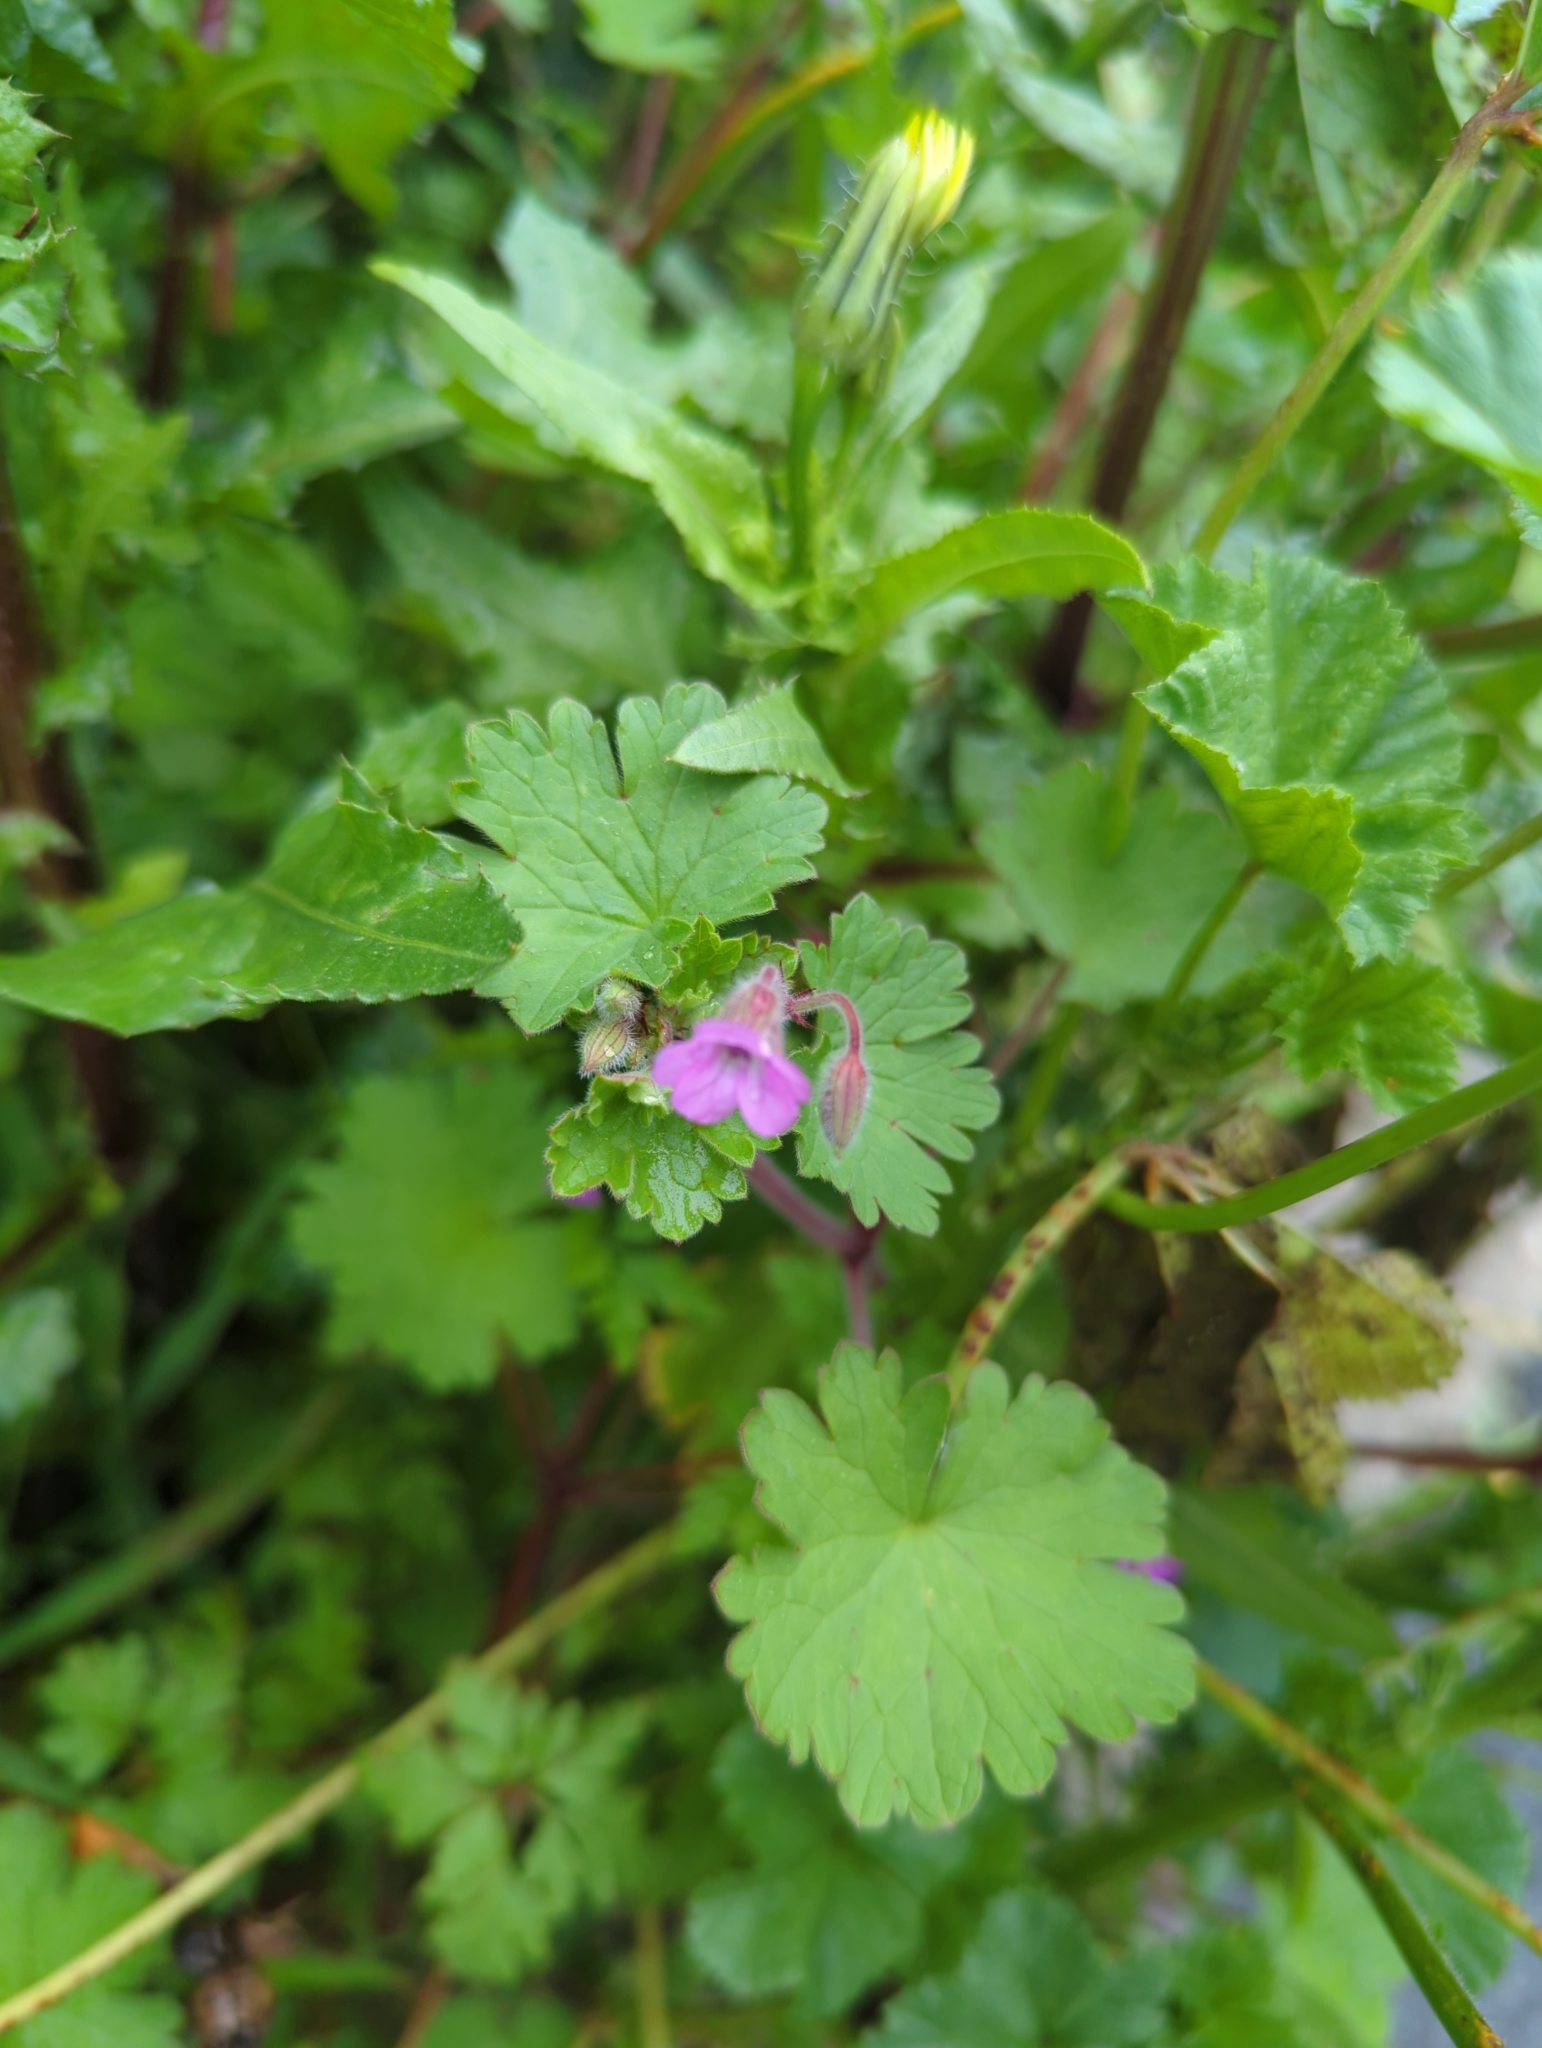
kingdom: Plantae
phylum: Tracheophyta
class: Magnoliopsida
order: Geraniales
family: Geraniaceae
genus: Geranium
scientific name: Geranium rotundifolium
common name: Round-leaved crane's-bill
